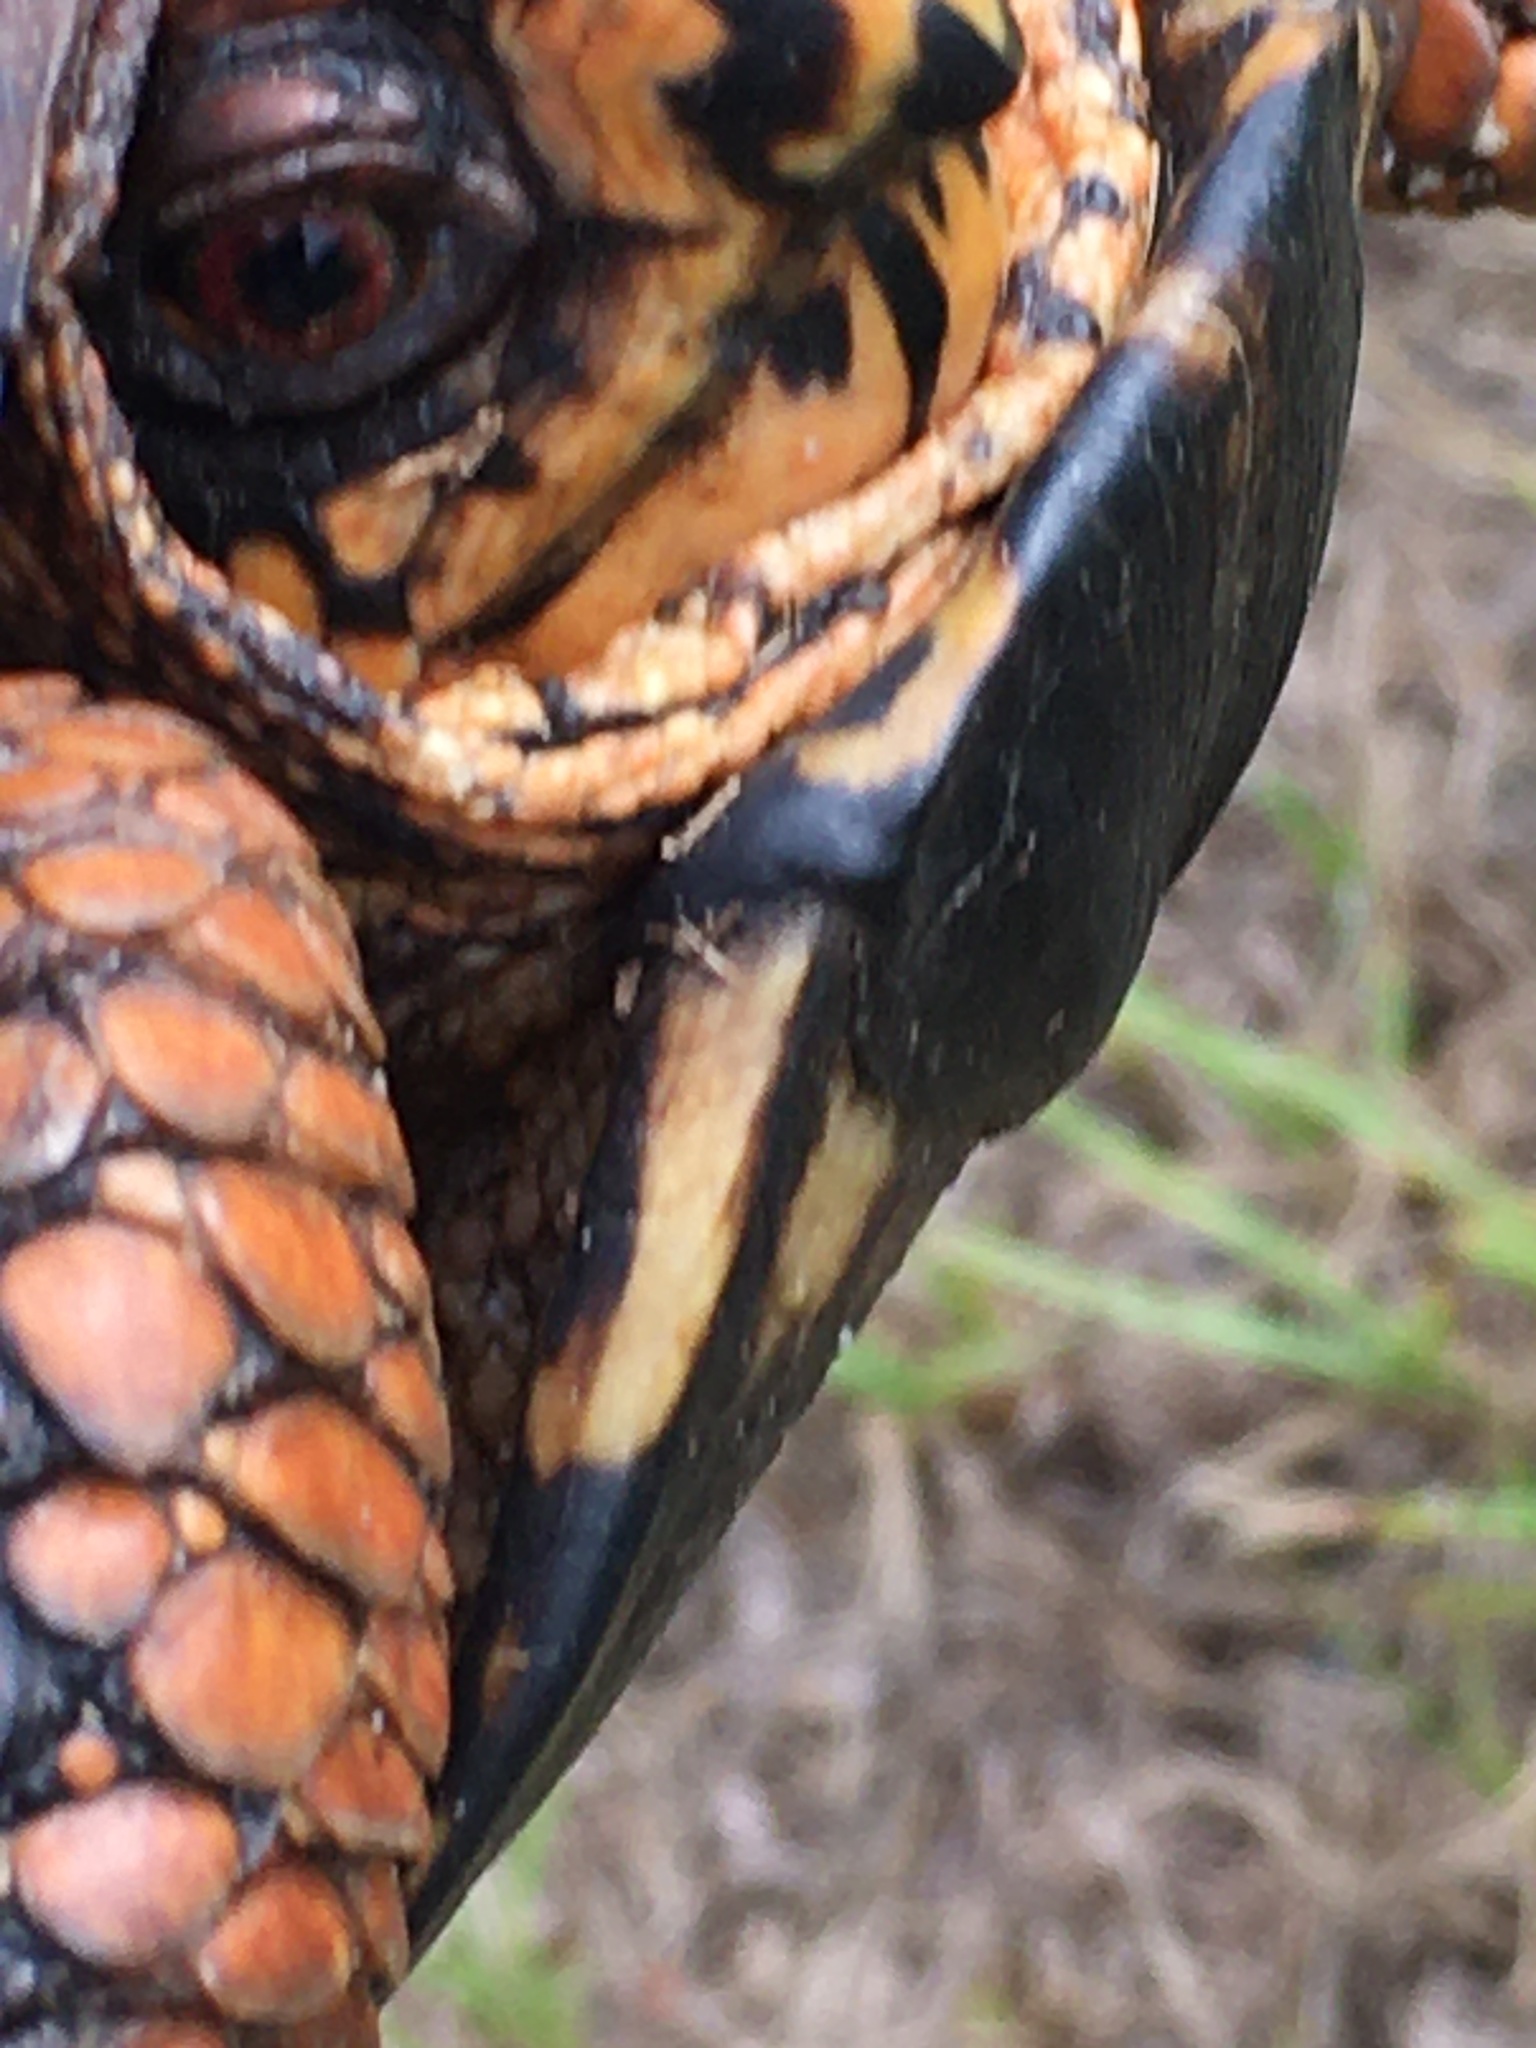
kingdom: Animalia
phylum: Chordata
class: Testudines
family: Emydidae
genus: Terrapene
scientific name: Terrapene carolina
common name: Common box turtle
